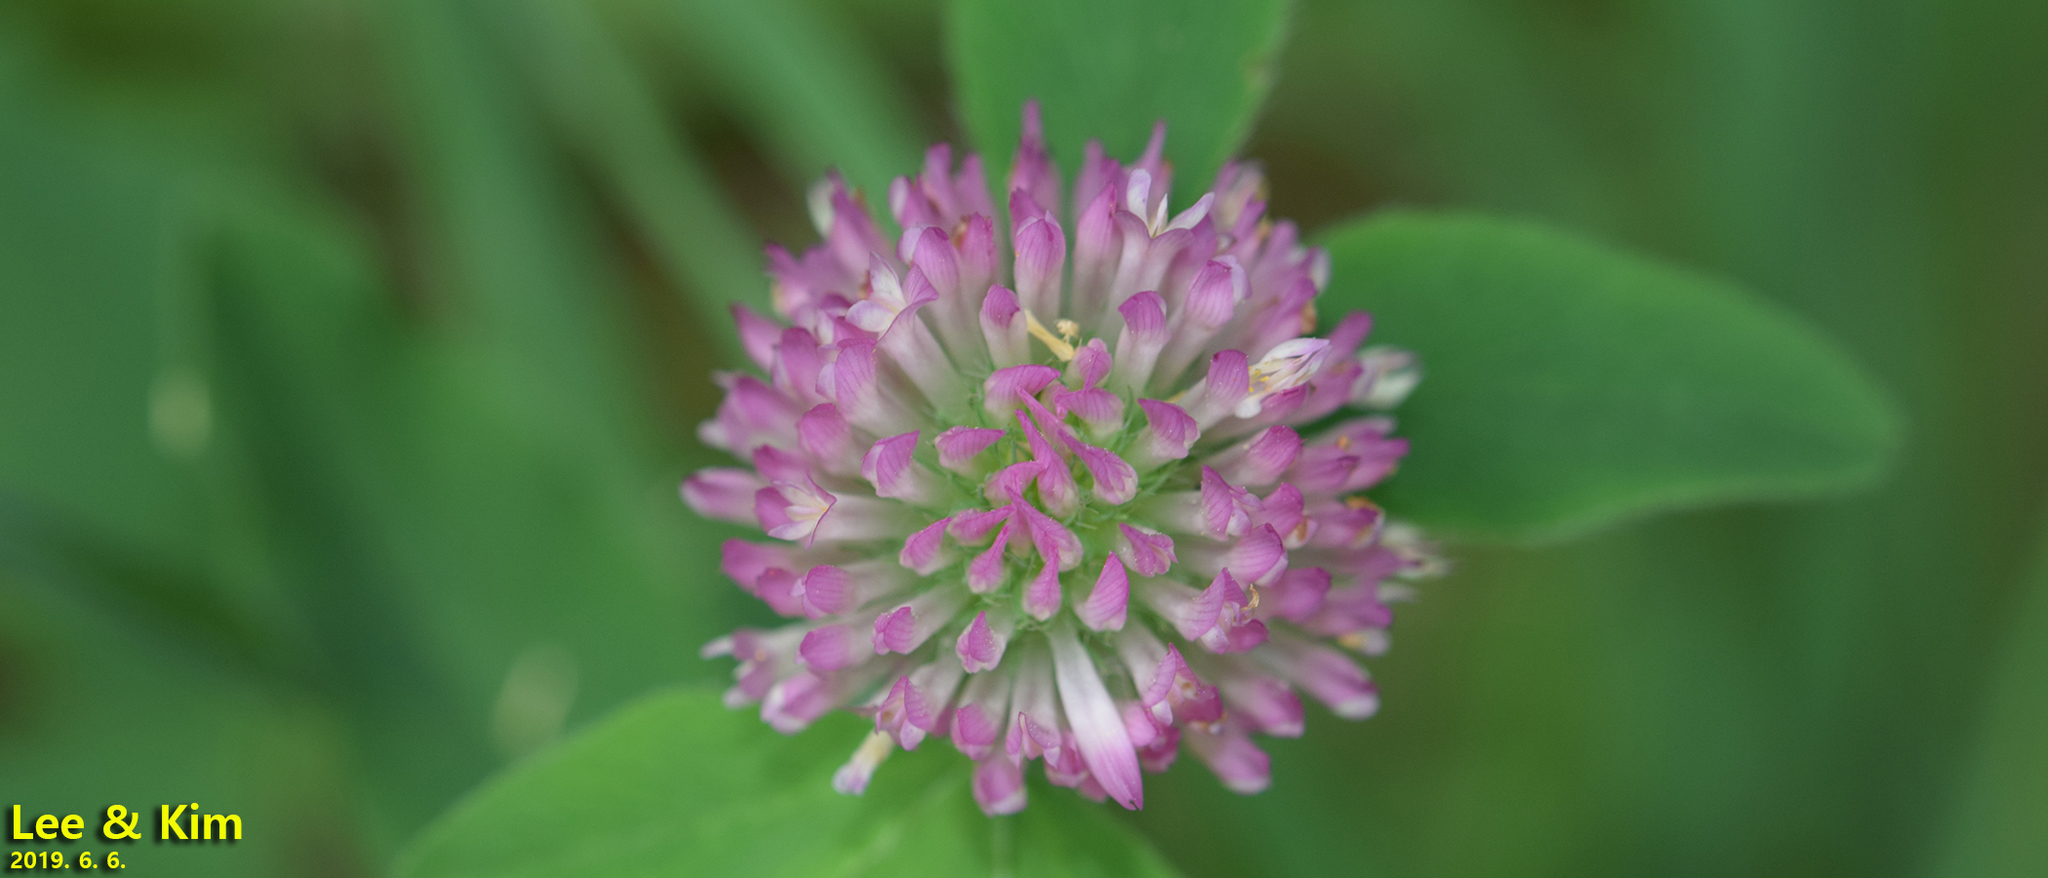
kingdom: Plantae
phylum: Tracheophyta
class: Magnoliopsida
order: Fabales
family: Fabaceae
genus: Trifolium
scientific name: Trifolium pratense
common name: Red clover
